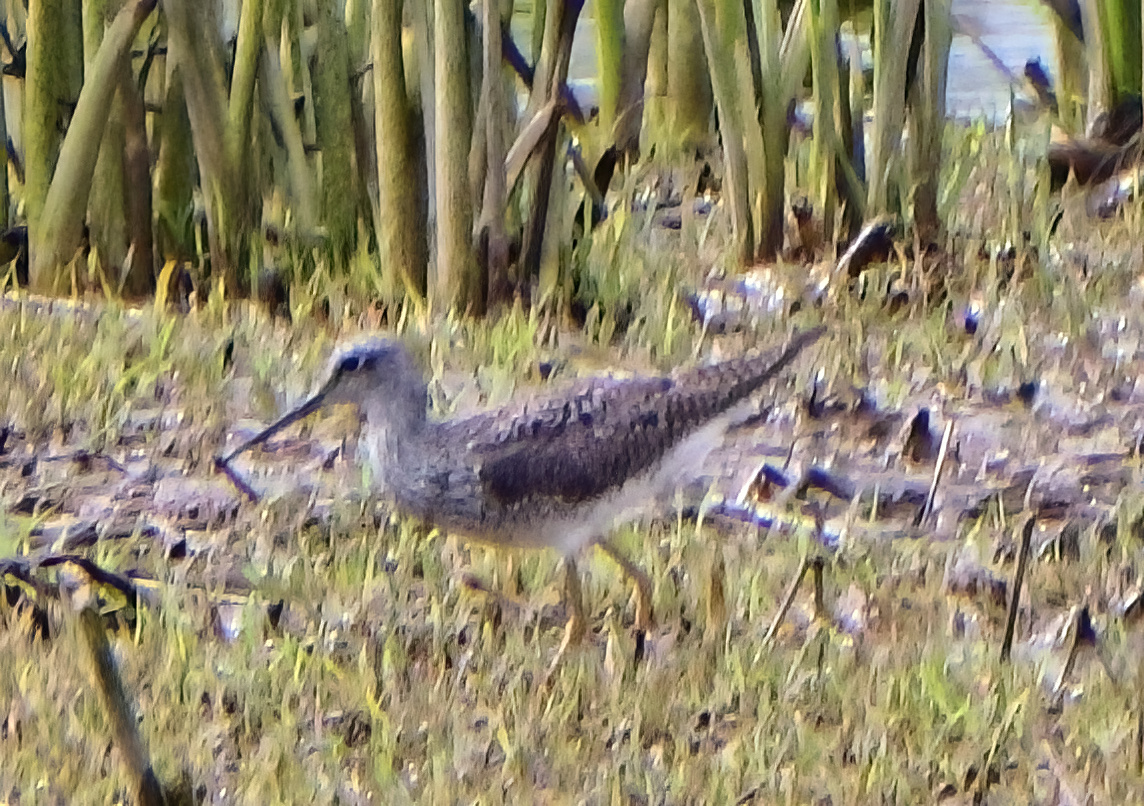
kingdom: Animalia
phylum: Chordata
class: Aves
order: Charadriiformes
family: Scolopacidae
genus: Tringa
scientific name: Tringa melanoleuca
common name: Greater yellowlegs
